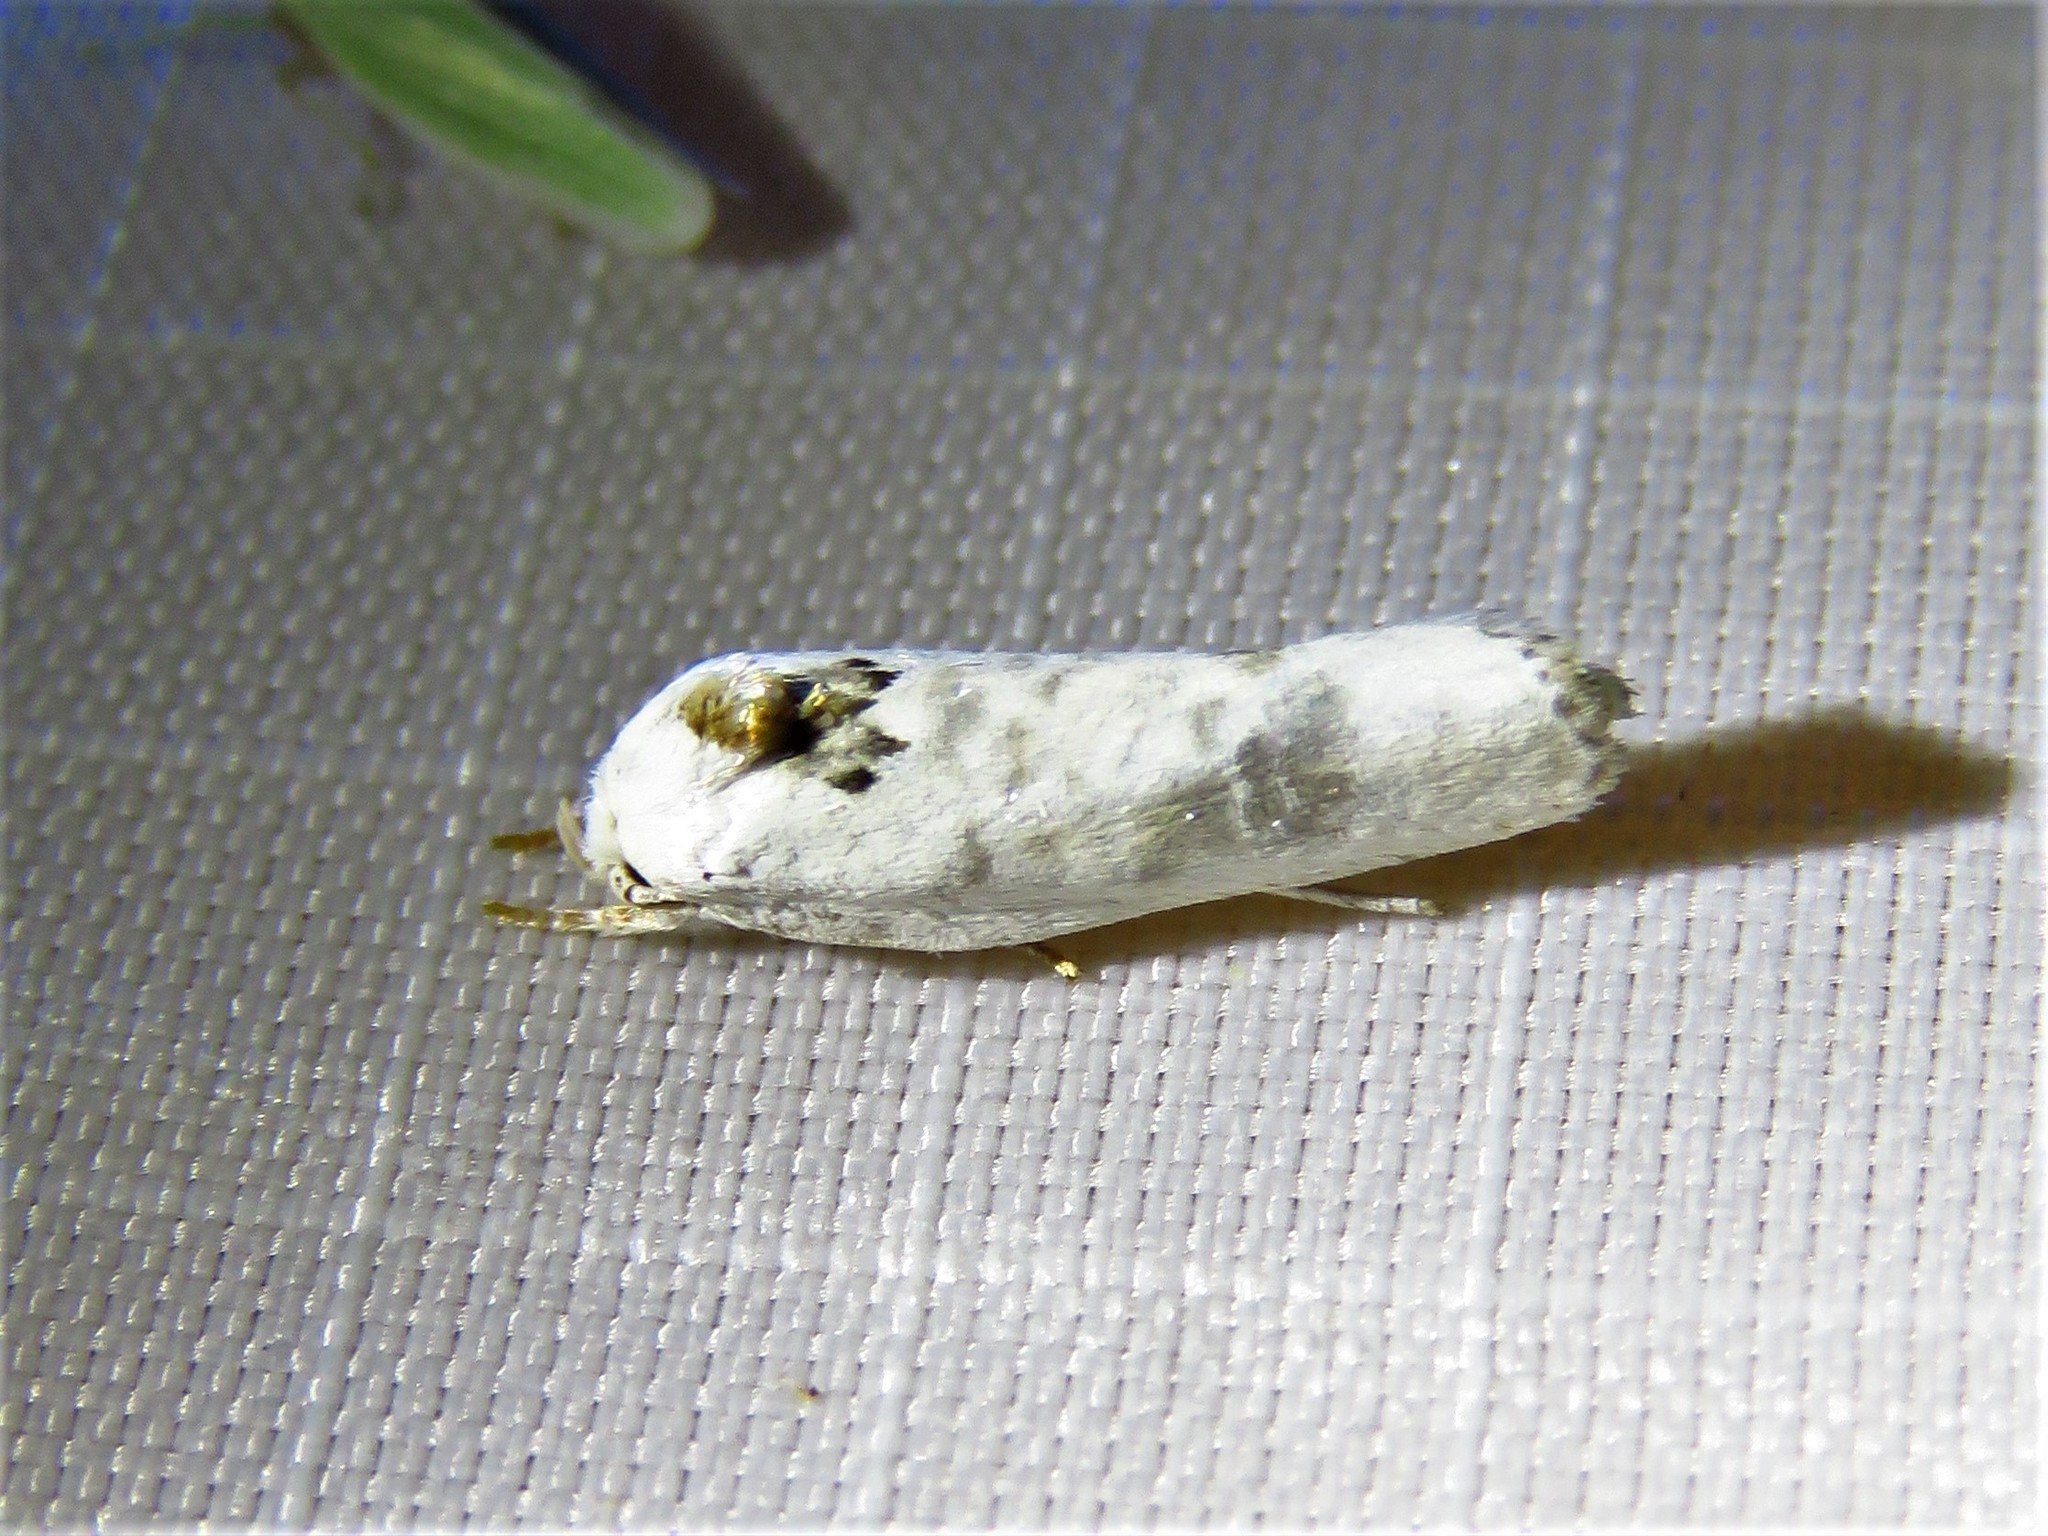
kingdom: Animalia
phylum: Arthropoda
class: Insecta
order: Lepidoptera
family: Depressariidae
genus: Antaeotricha
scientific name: Antaeotricha schlaegeri
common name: Schlaeger's fruitworm moth
